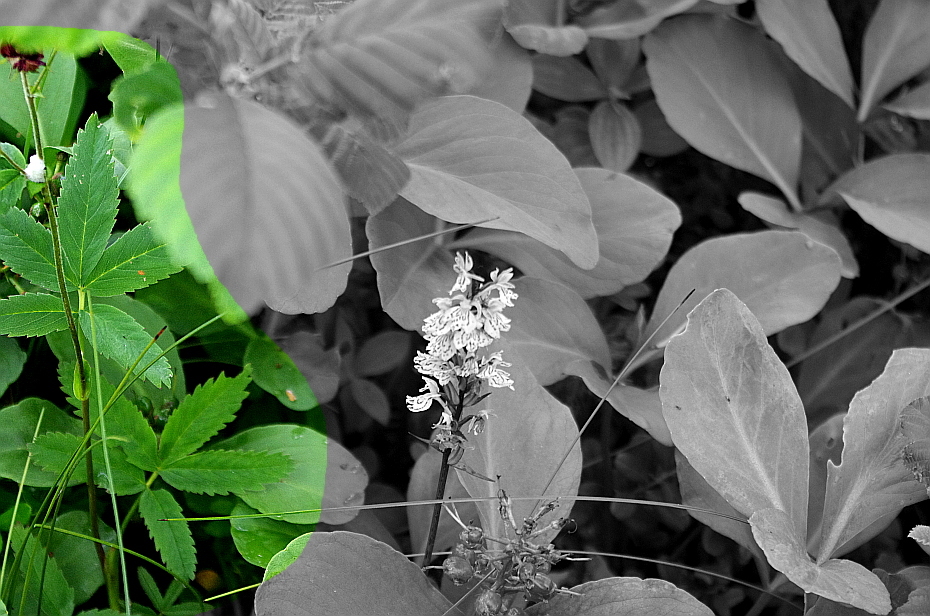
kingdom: Plantae
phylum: Tracheophyta
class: Magnoliopsida
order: Rosales
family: Rosaceae
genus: Comarum
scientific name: Comarum palustre
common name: Marsh cinquefoil
